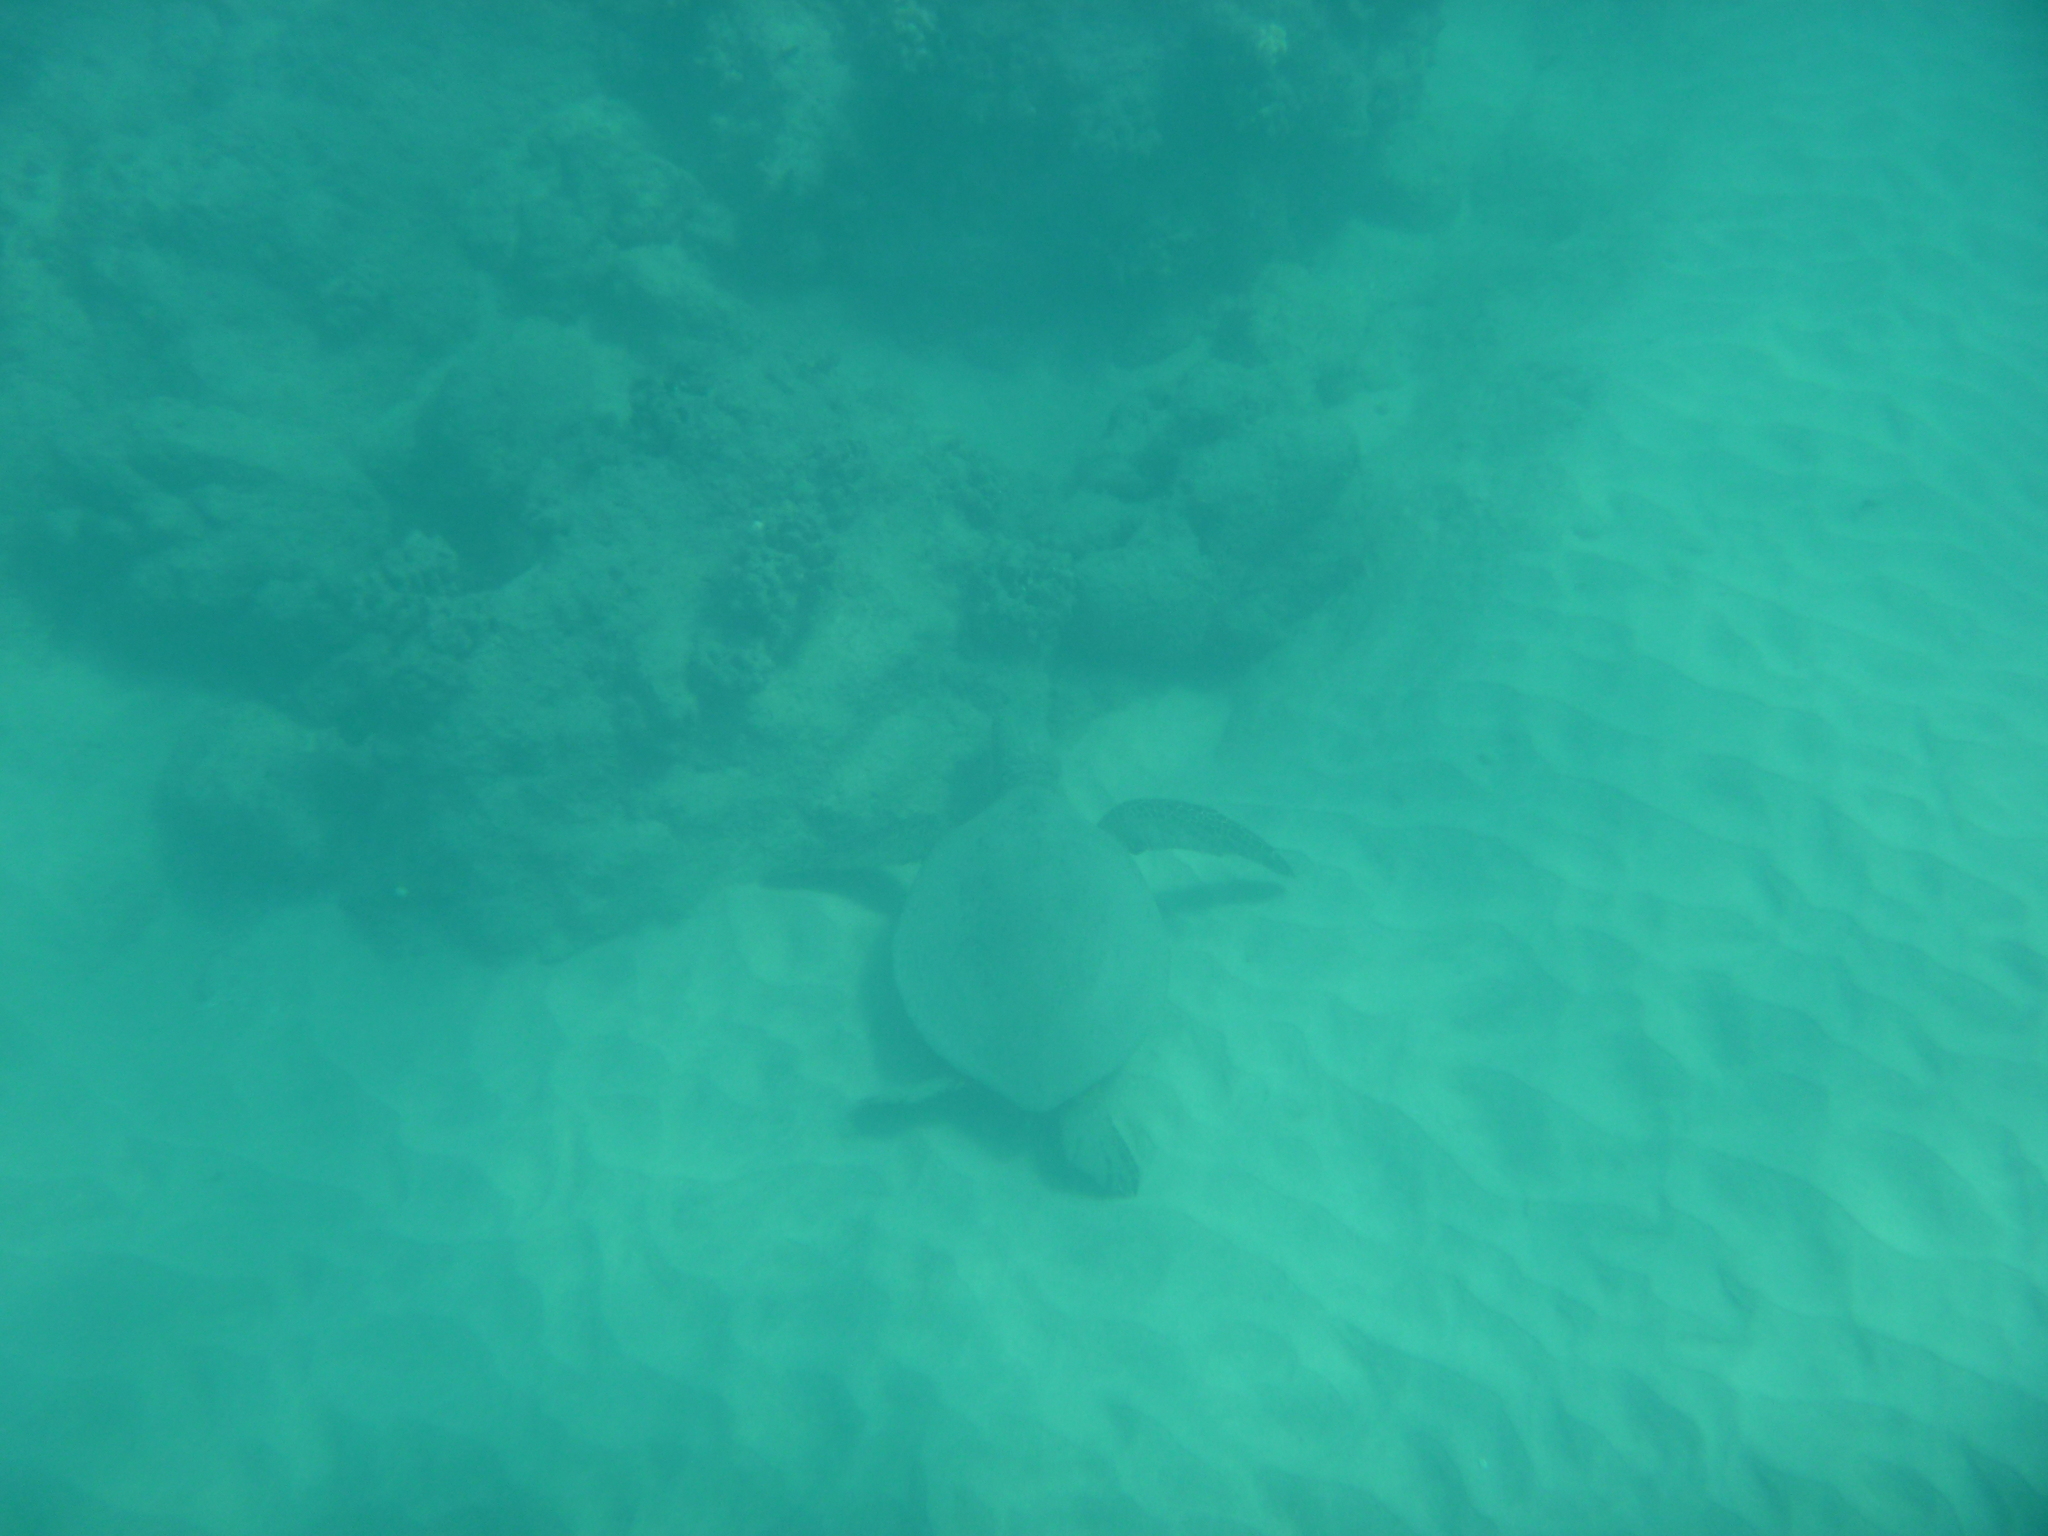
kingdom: Animalia
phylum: Chordata
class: Testudines
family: Cheloniidae
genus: Chelonia
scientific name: Chelonia mydas
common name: Green turtle
